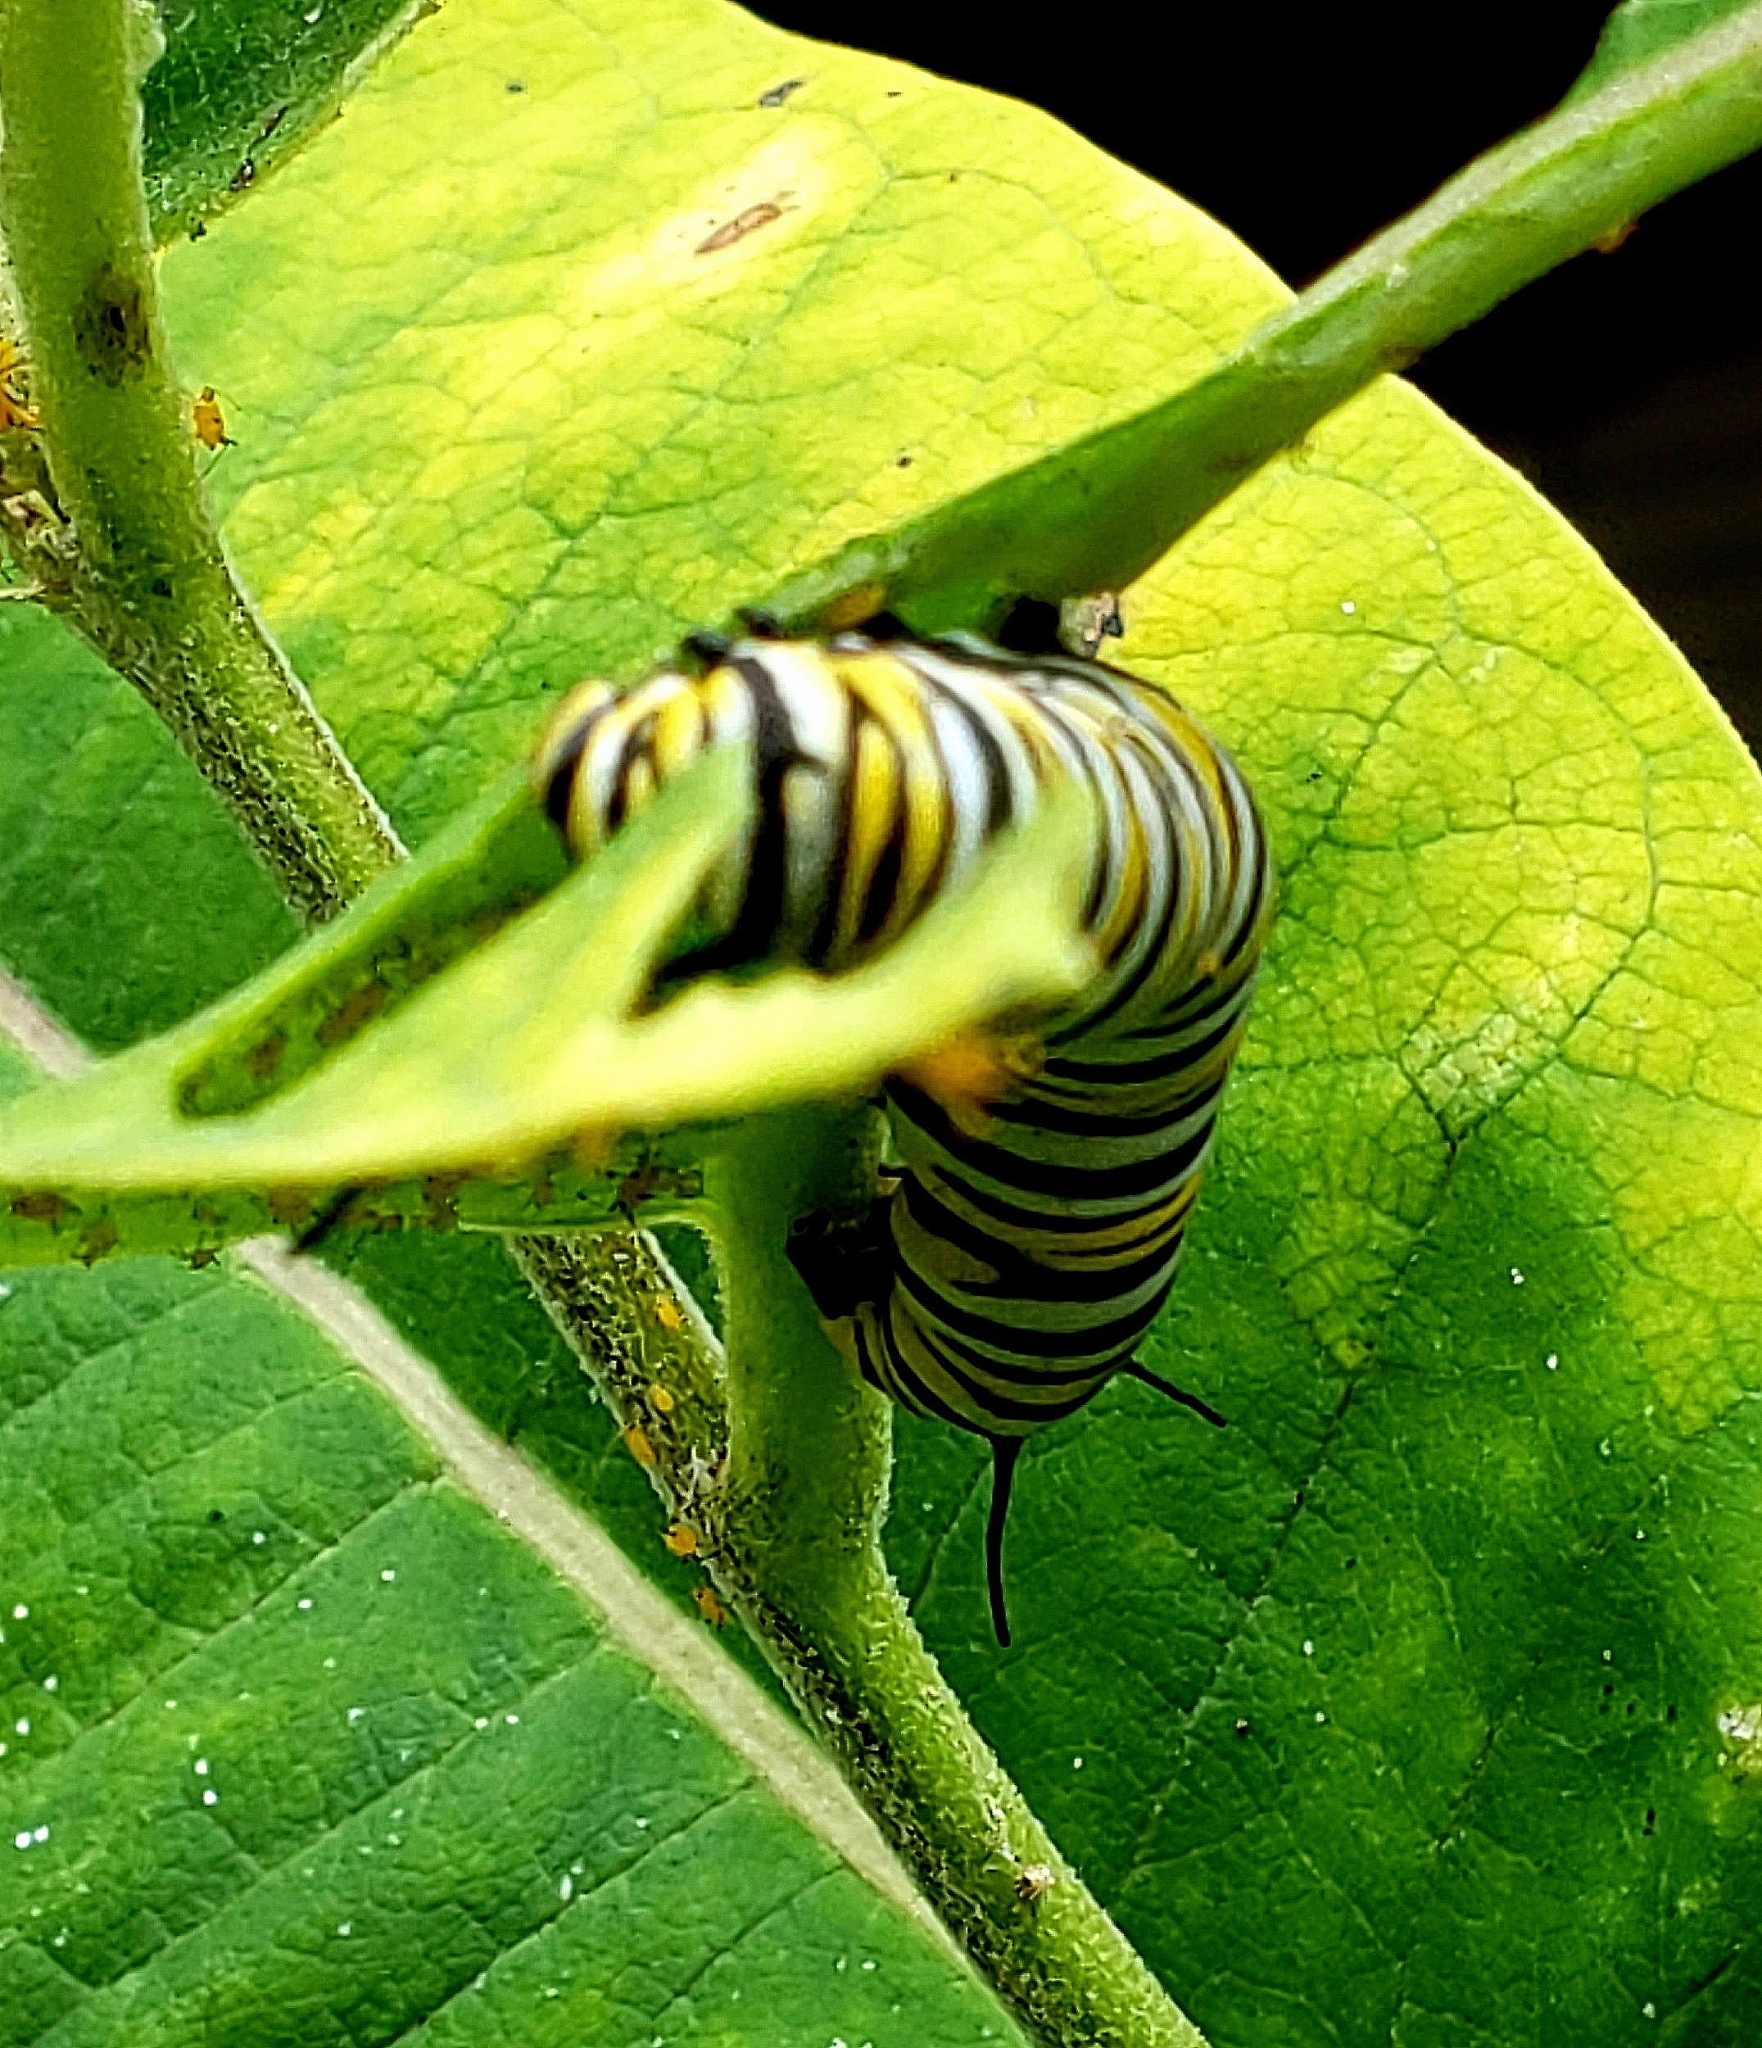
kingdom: Animalia
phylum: Arthropoda
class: Insecta
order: Lepidoptera
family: Nymphalidae
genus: Danaus
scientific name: Danaus plexippus
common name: Monarch
